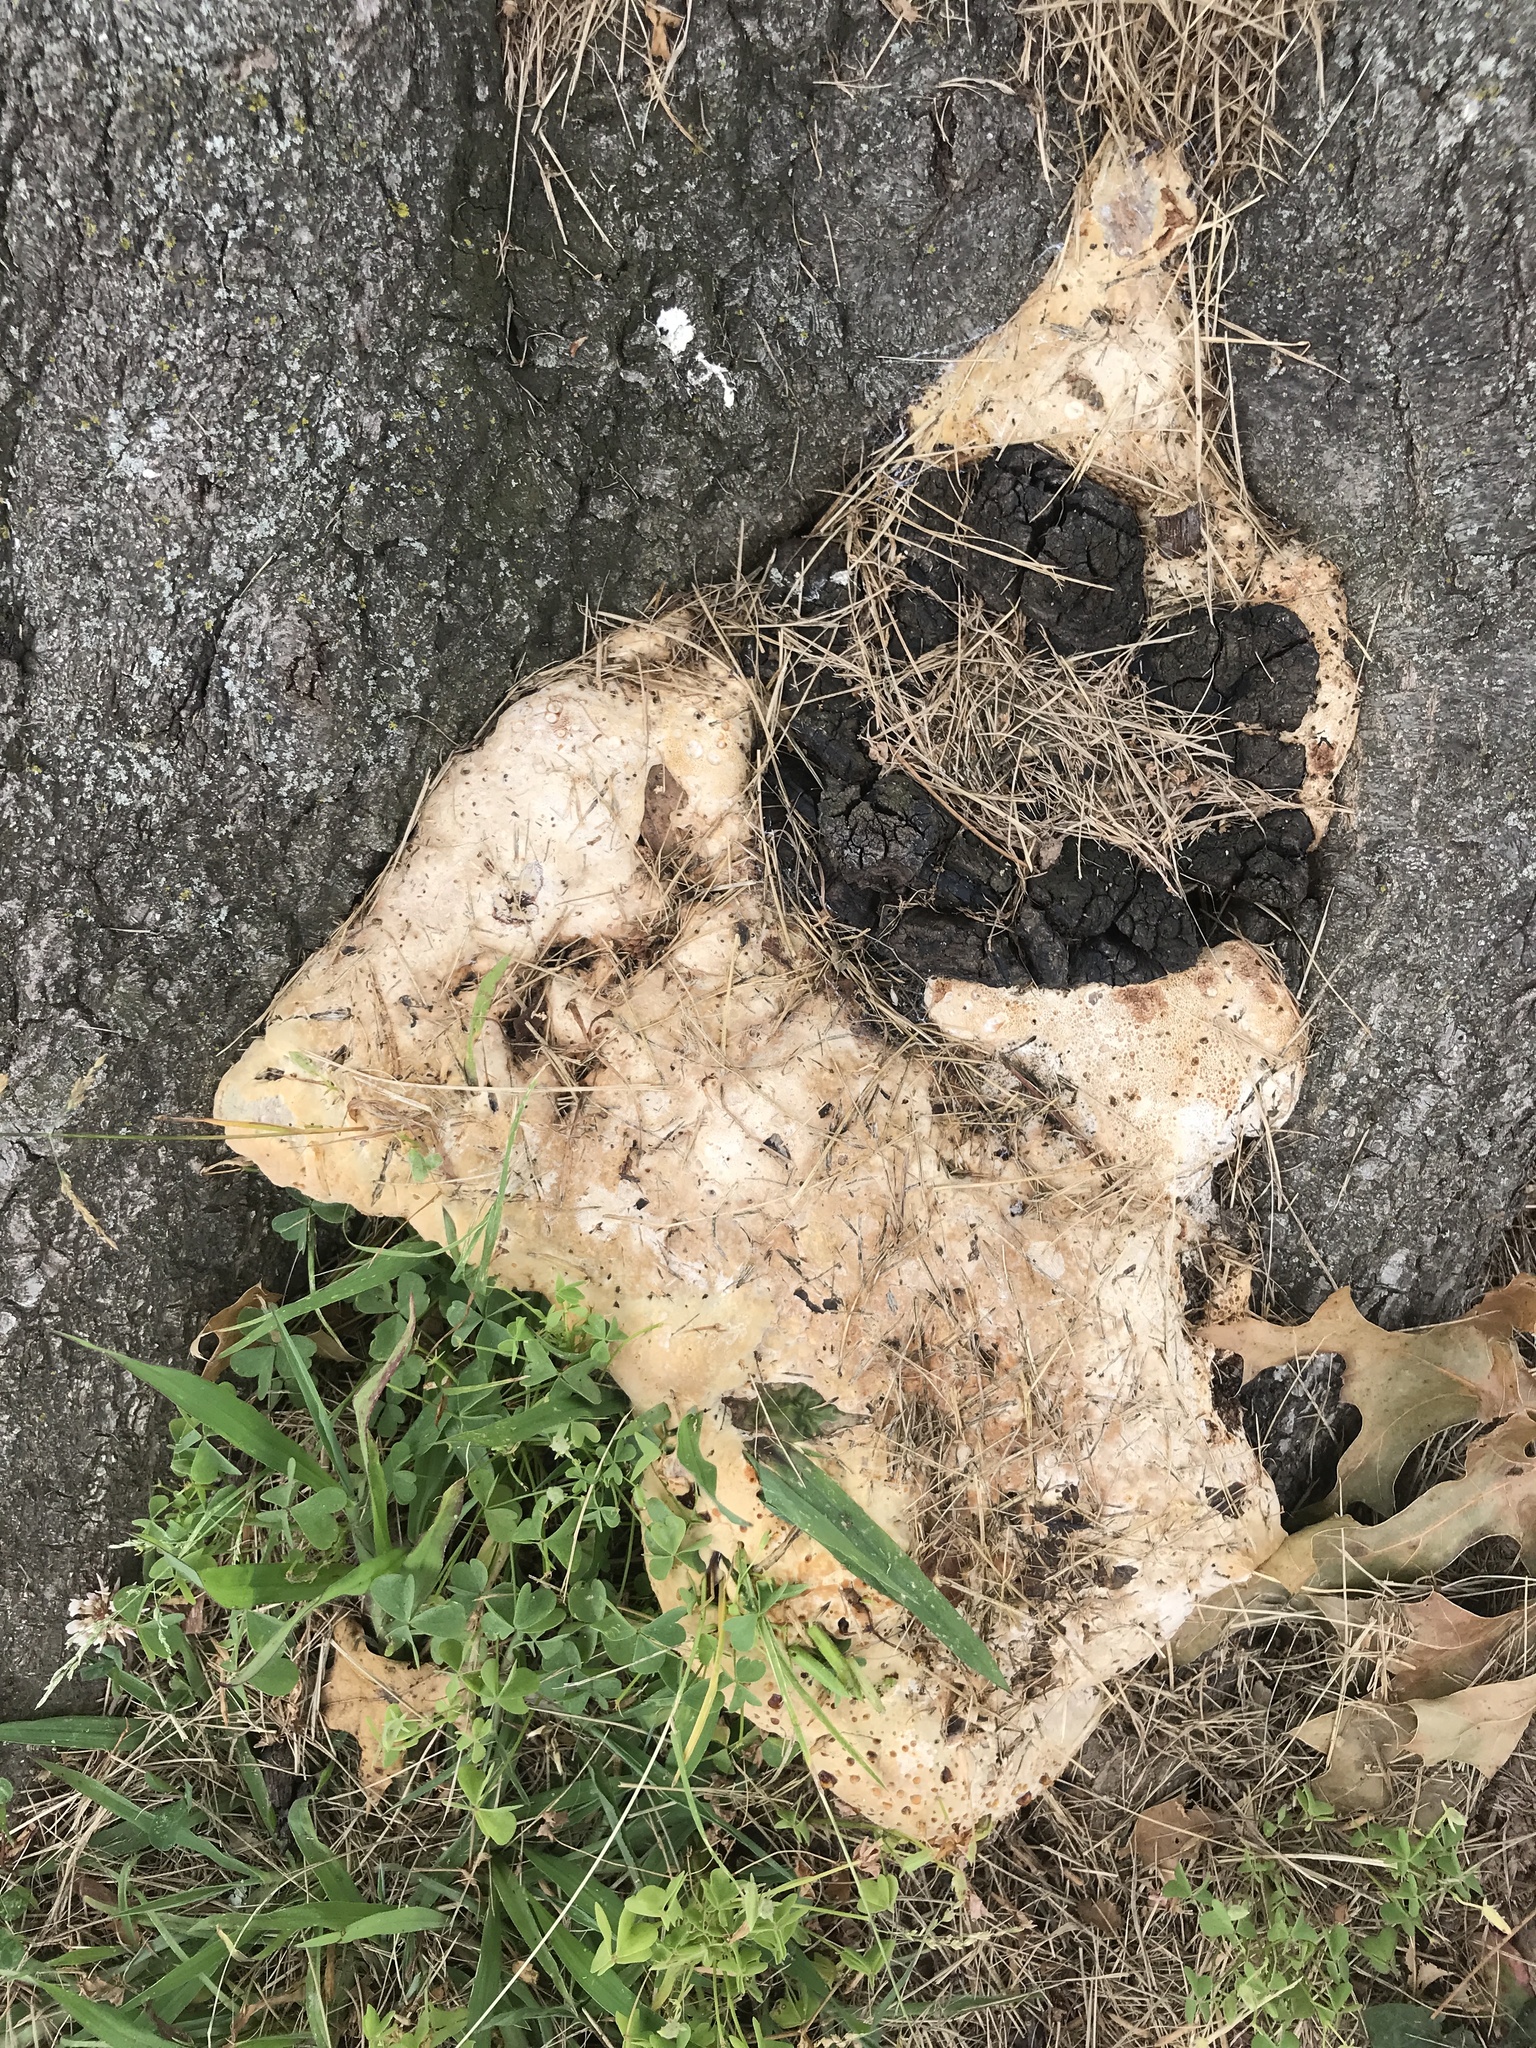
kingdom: Fungi
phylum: Basidiomycota
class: Agaricomycetes
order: Hymenochaetales
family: Hymenochaetaceae
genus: Pseudoinonotus
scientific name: Pseudoinonotus dryadeus
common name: Oak bracket
